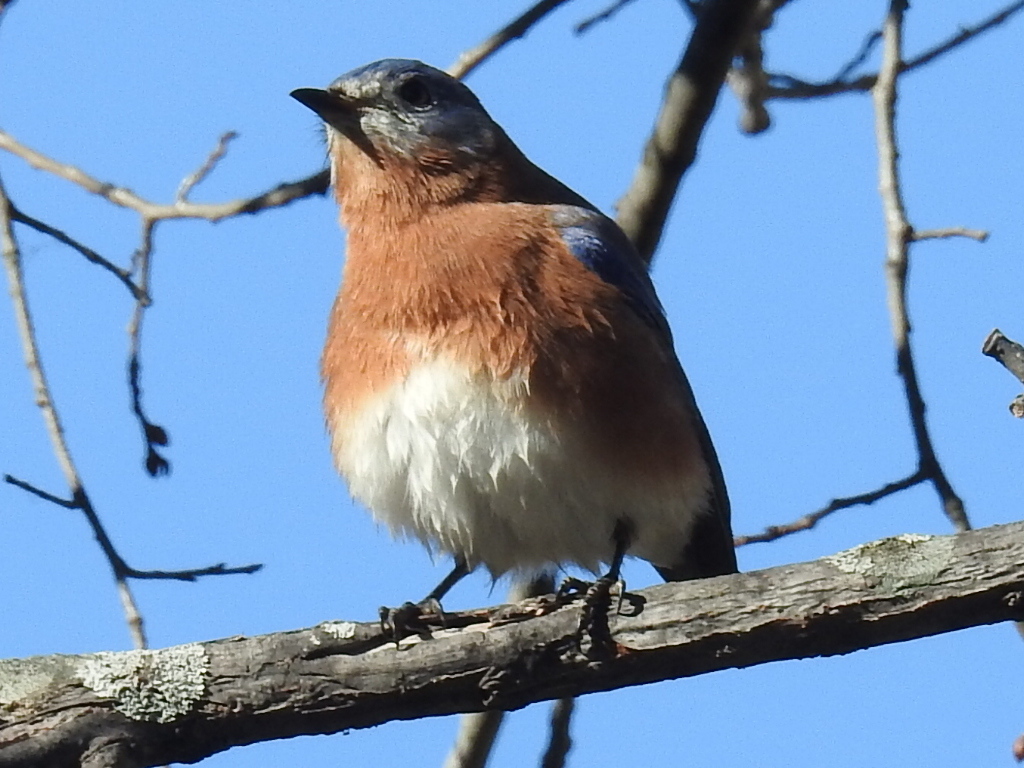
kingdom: Animalia
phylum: Chordata
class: Aves
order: Passeriformes
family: Turdidae
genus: Sialia
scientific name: Sialia sialis
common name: Eastern bluebird
